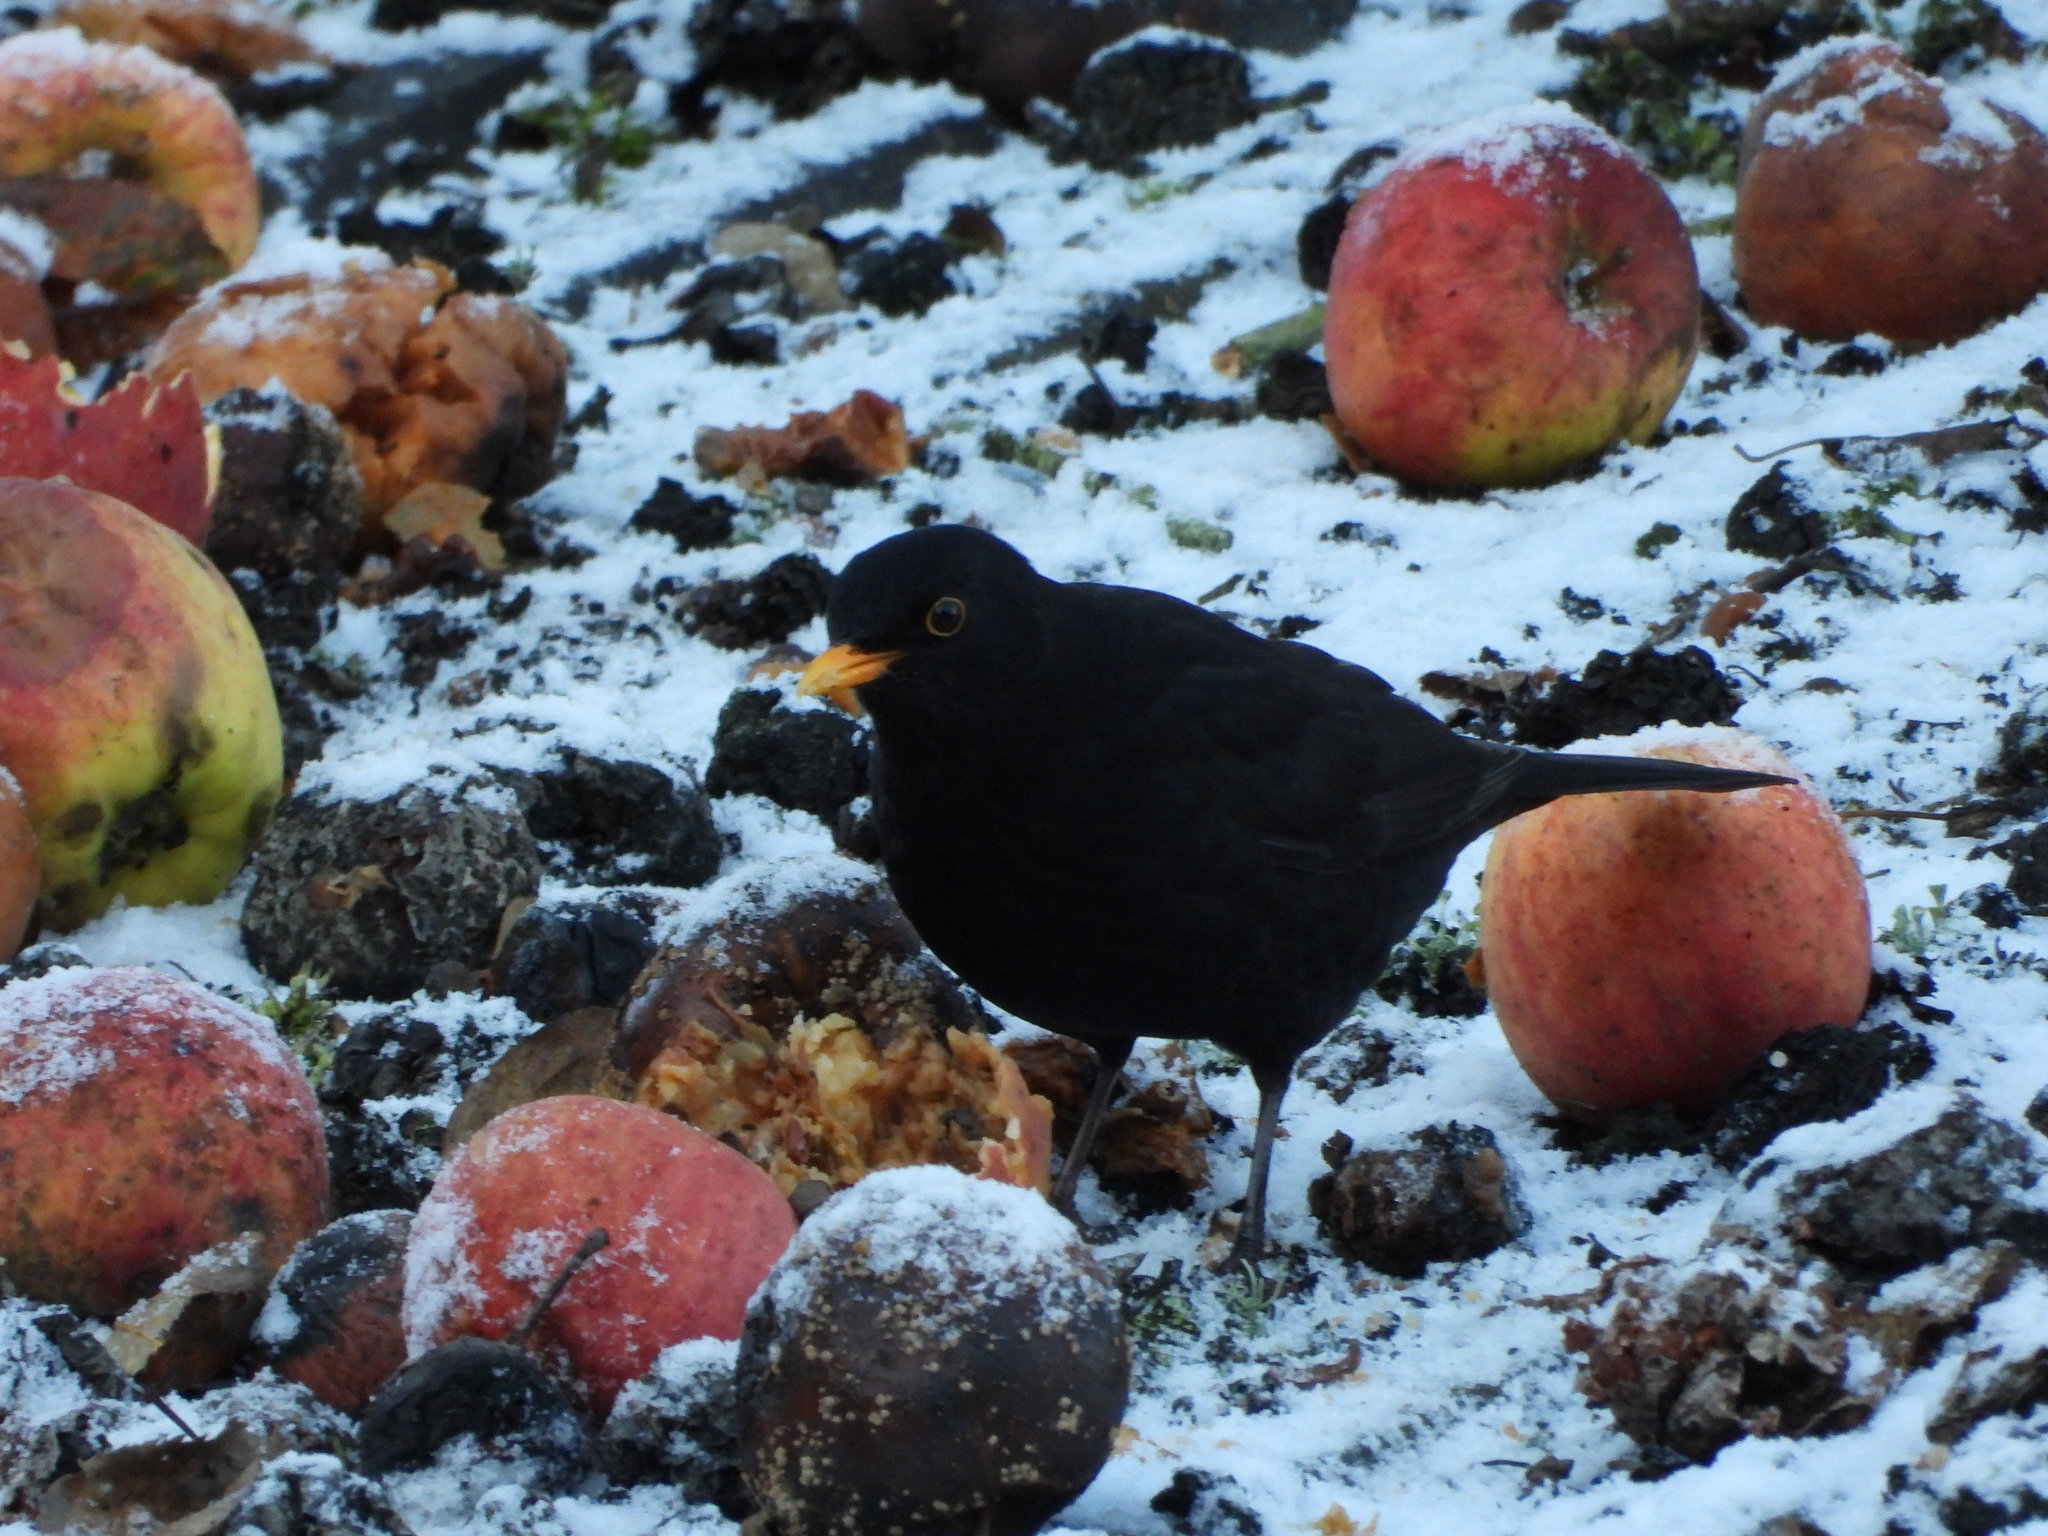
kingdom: Animalia
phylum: Chordata
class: Aves
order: Passeriformes
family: Turdidae
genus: Turdus
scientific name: Turdus merula
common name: Common blackbird
